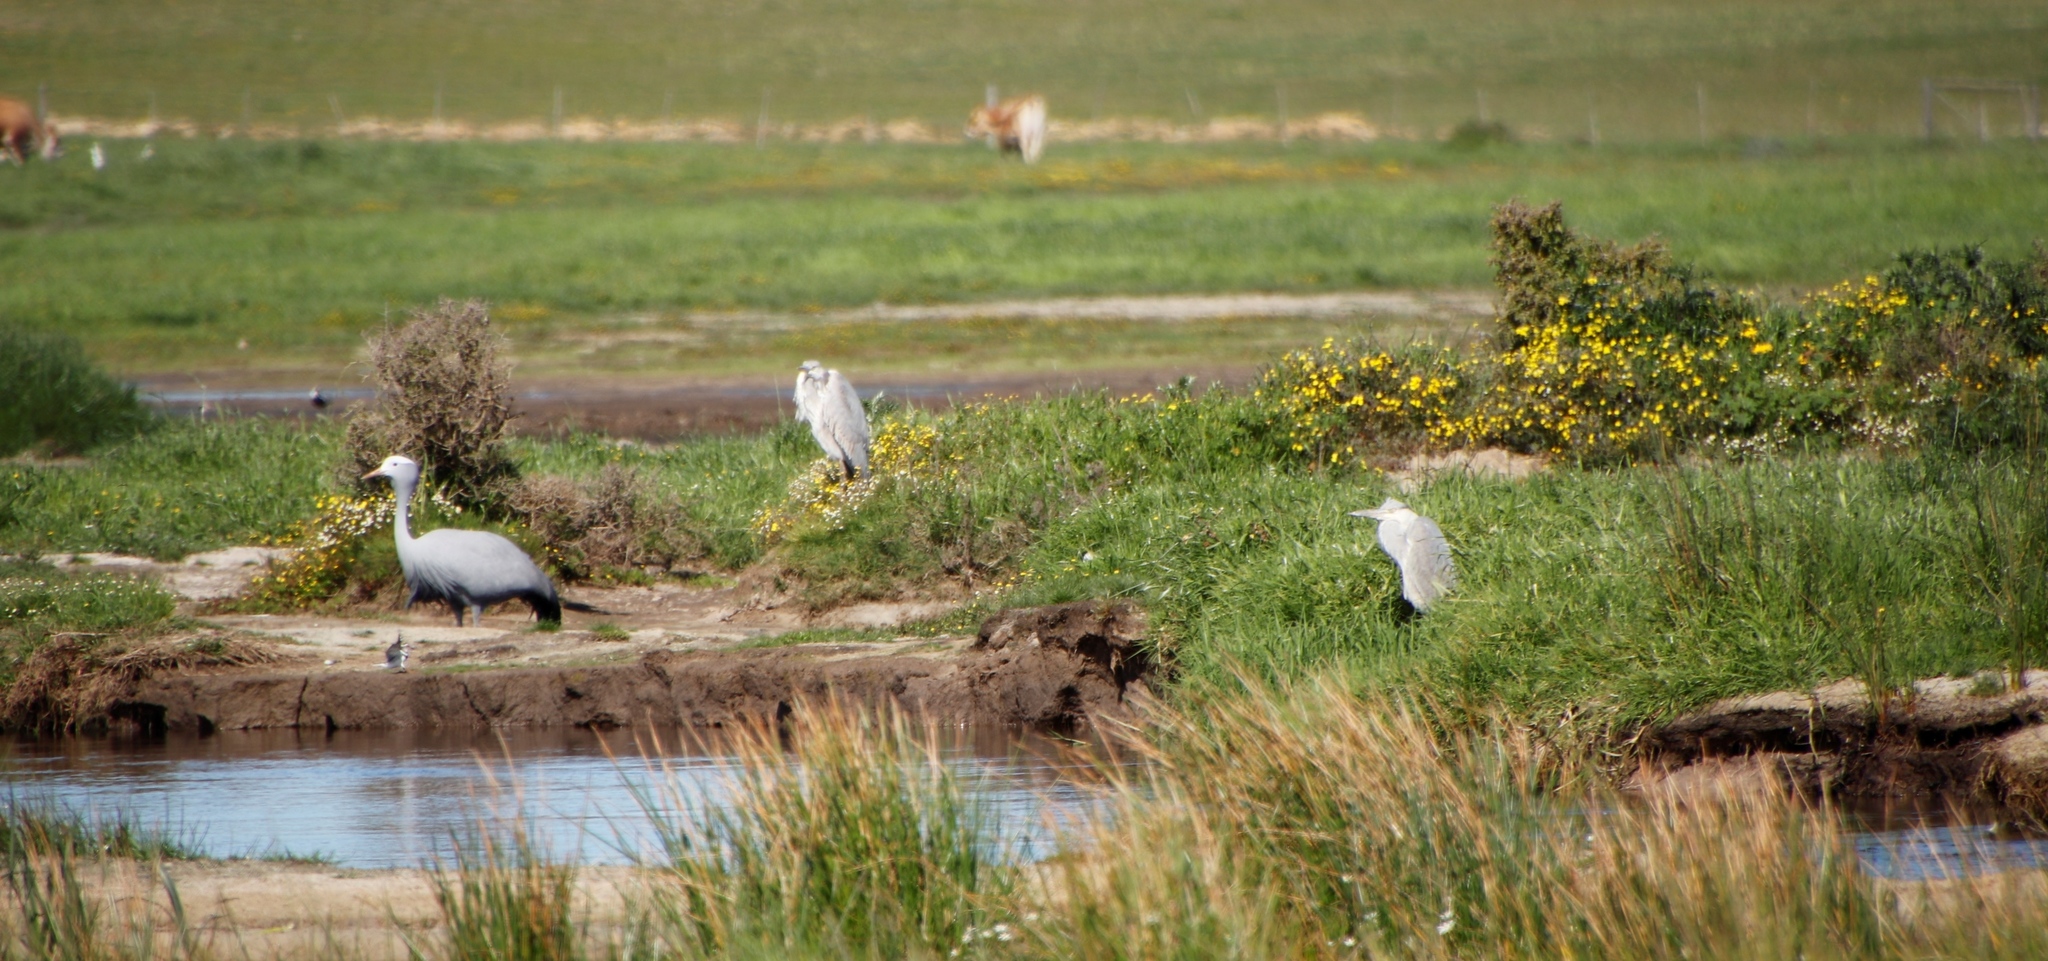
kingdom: Animalia
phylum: Chordata
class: Aves
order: Pelecaniformes
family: Ardeidae
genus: Ardea
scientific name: Ardea cinerea
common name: Grey heron
